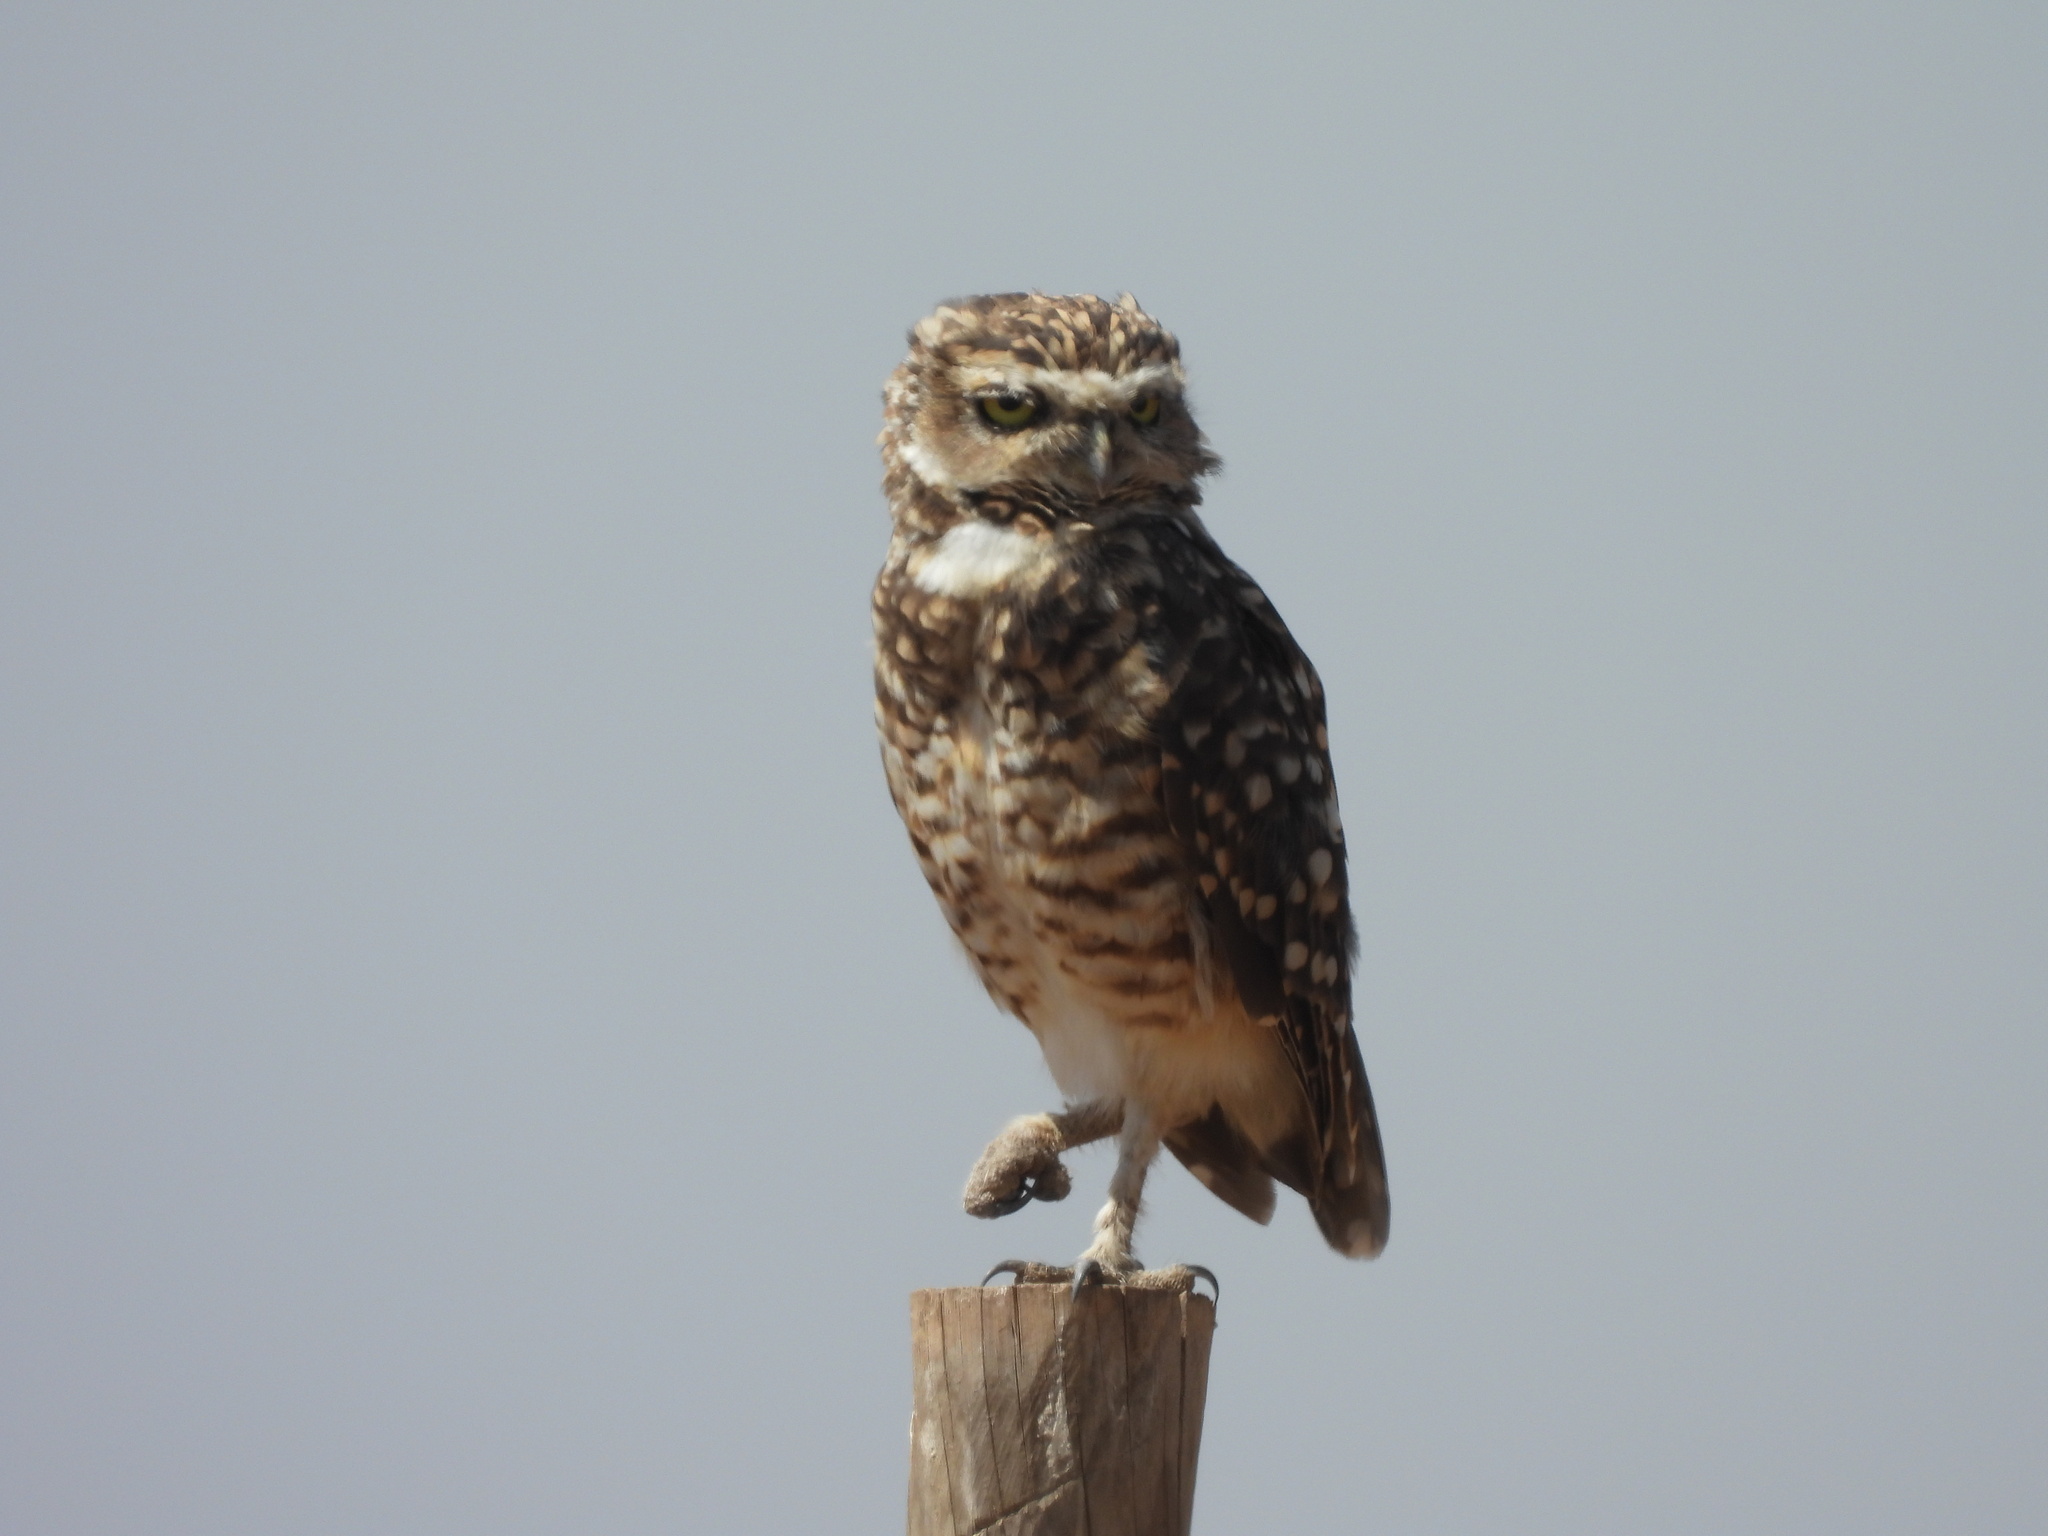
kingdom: Animalia
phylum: Chordata
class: Aves
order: Strigiformes
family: Strigidae
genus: Athene
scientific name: Athene cunicularia
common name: Burrowing owl
